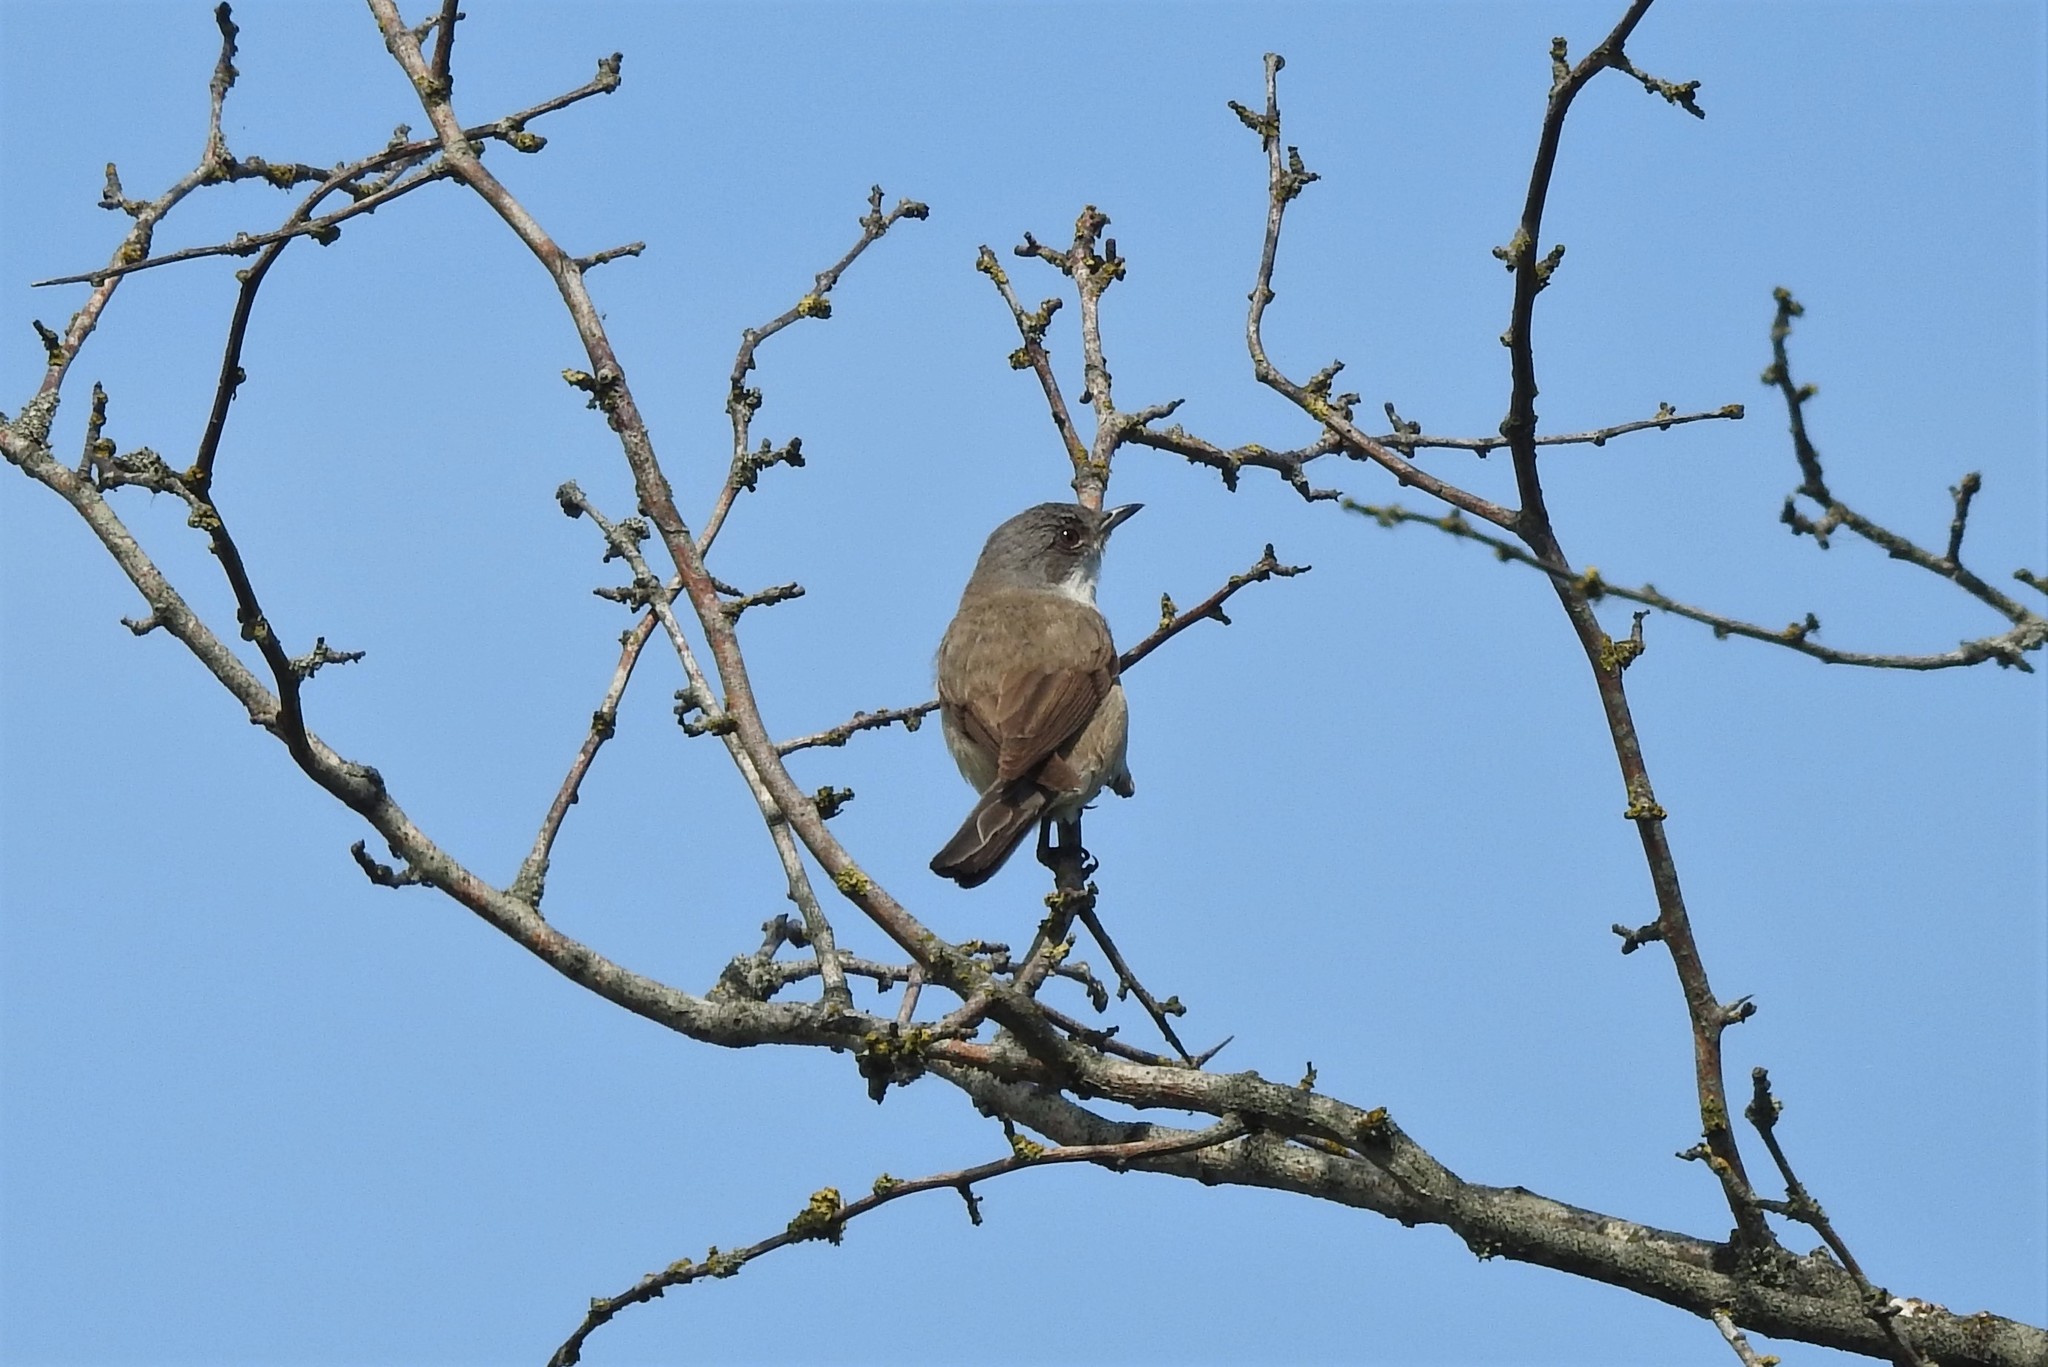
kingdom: Animalia
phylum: Chordata
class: Aves
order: Passeriformes
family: Sylviidae
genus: Sylvia
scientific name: Sylvia curruca
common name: Lesser whitethroat
